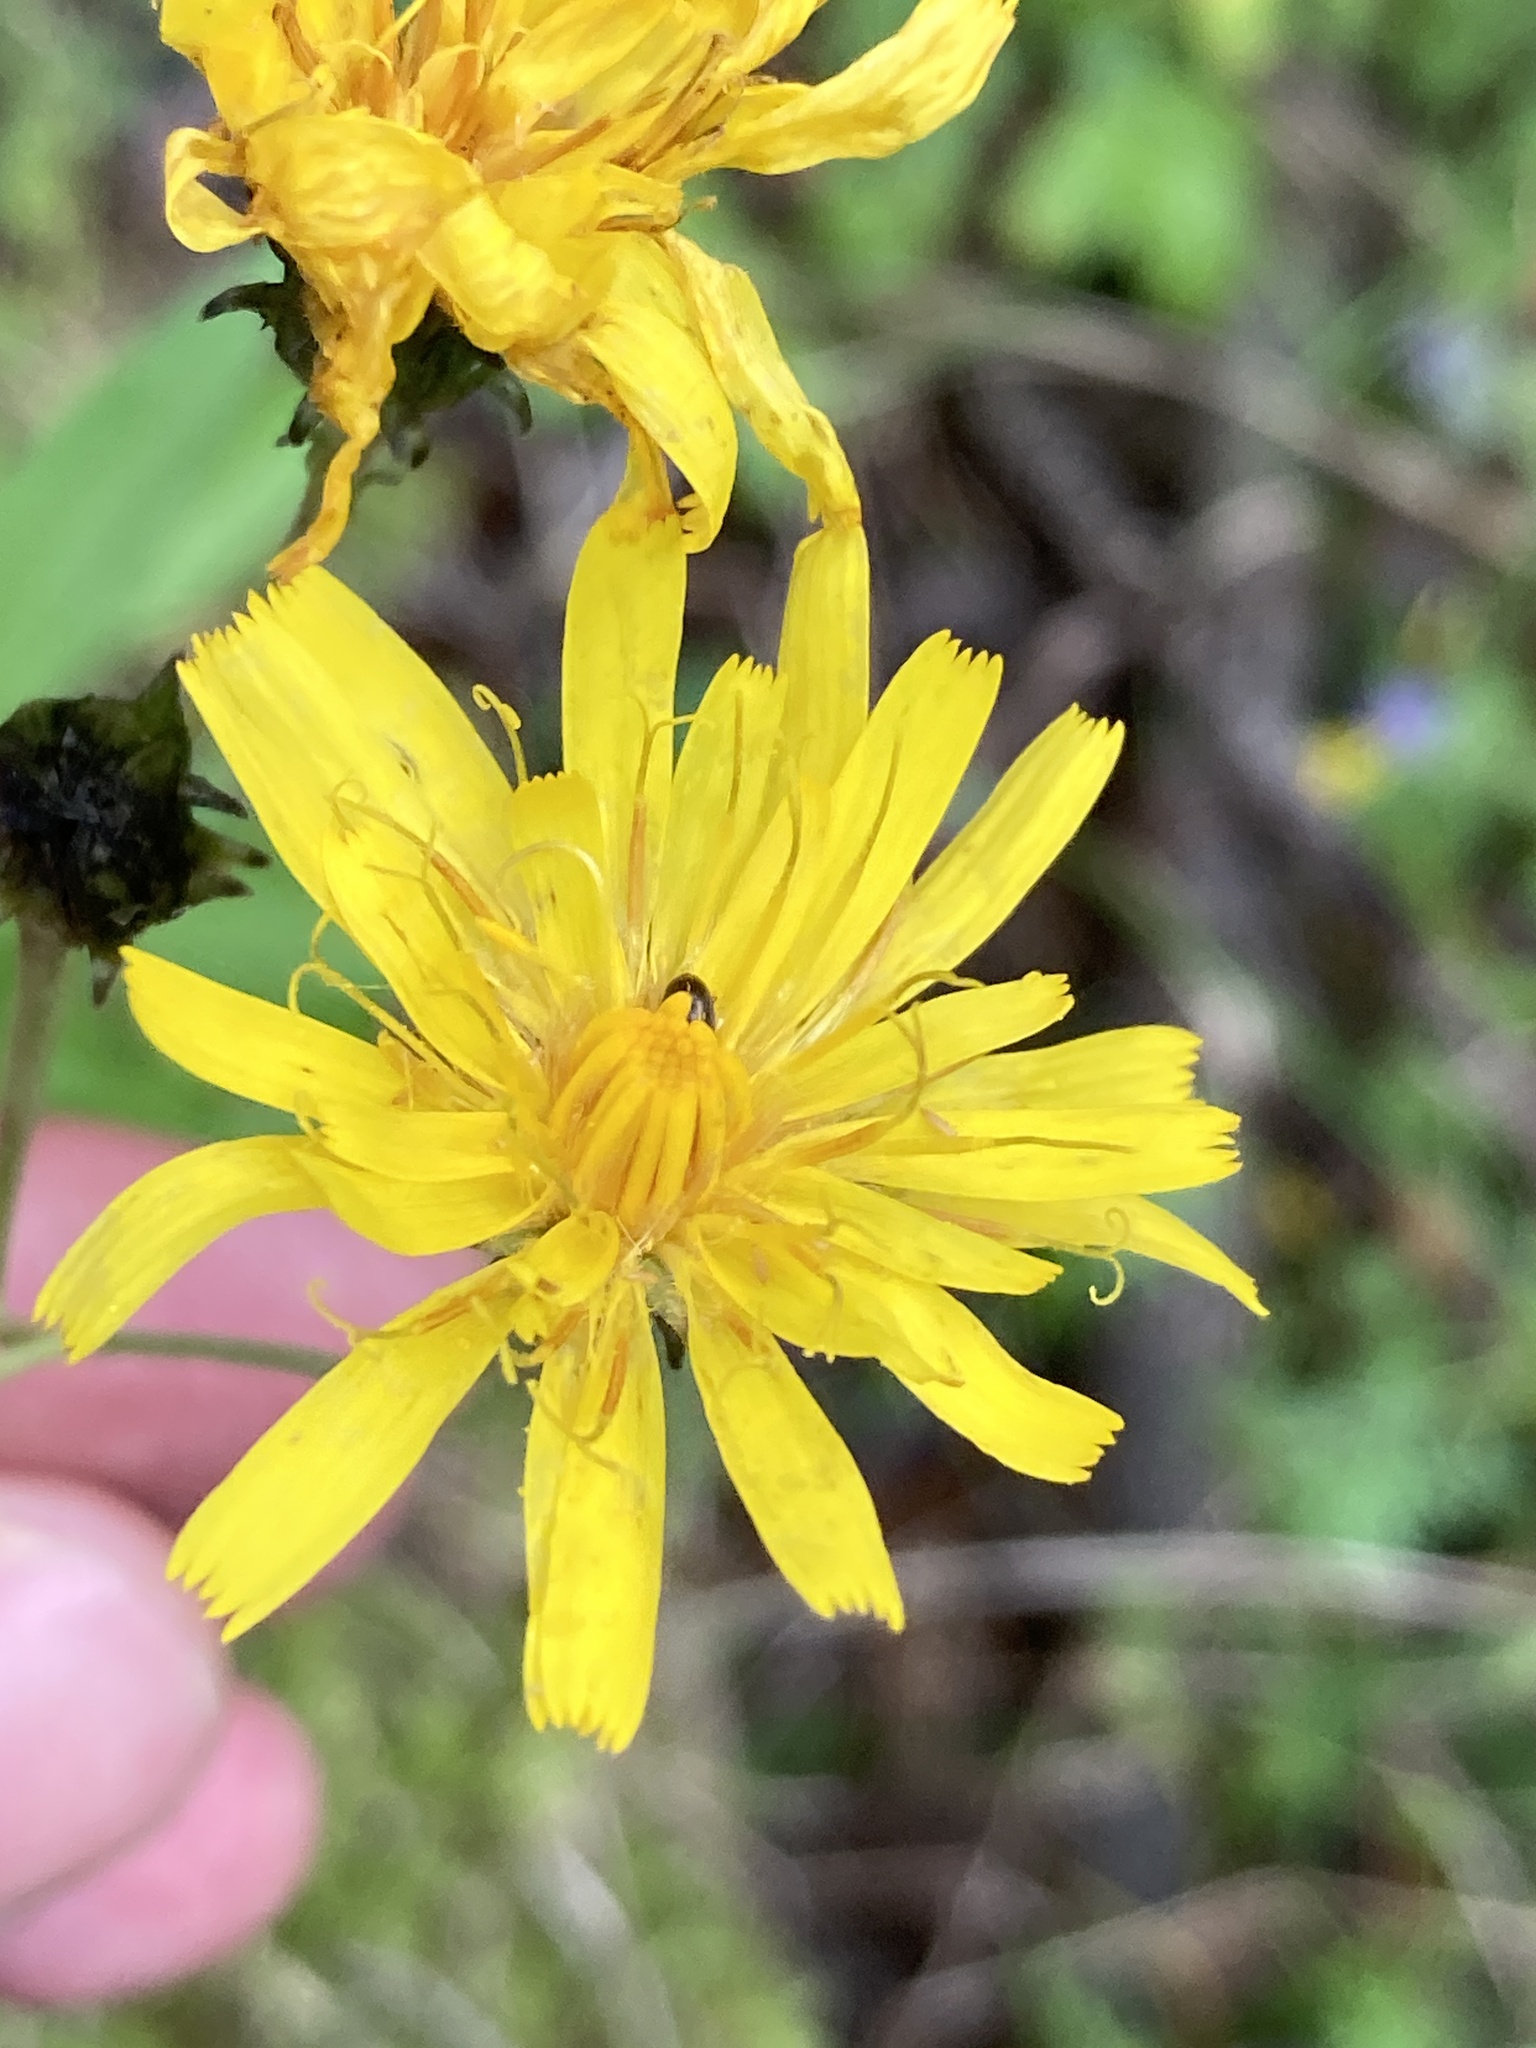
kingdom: Plantae
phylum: Tracheophyta
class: Magnoliopsida
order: Asterales
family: Asteraceae
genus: Hieracium
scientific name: Hieracium umbellatum
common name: Northern hawkweed
